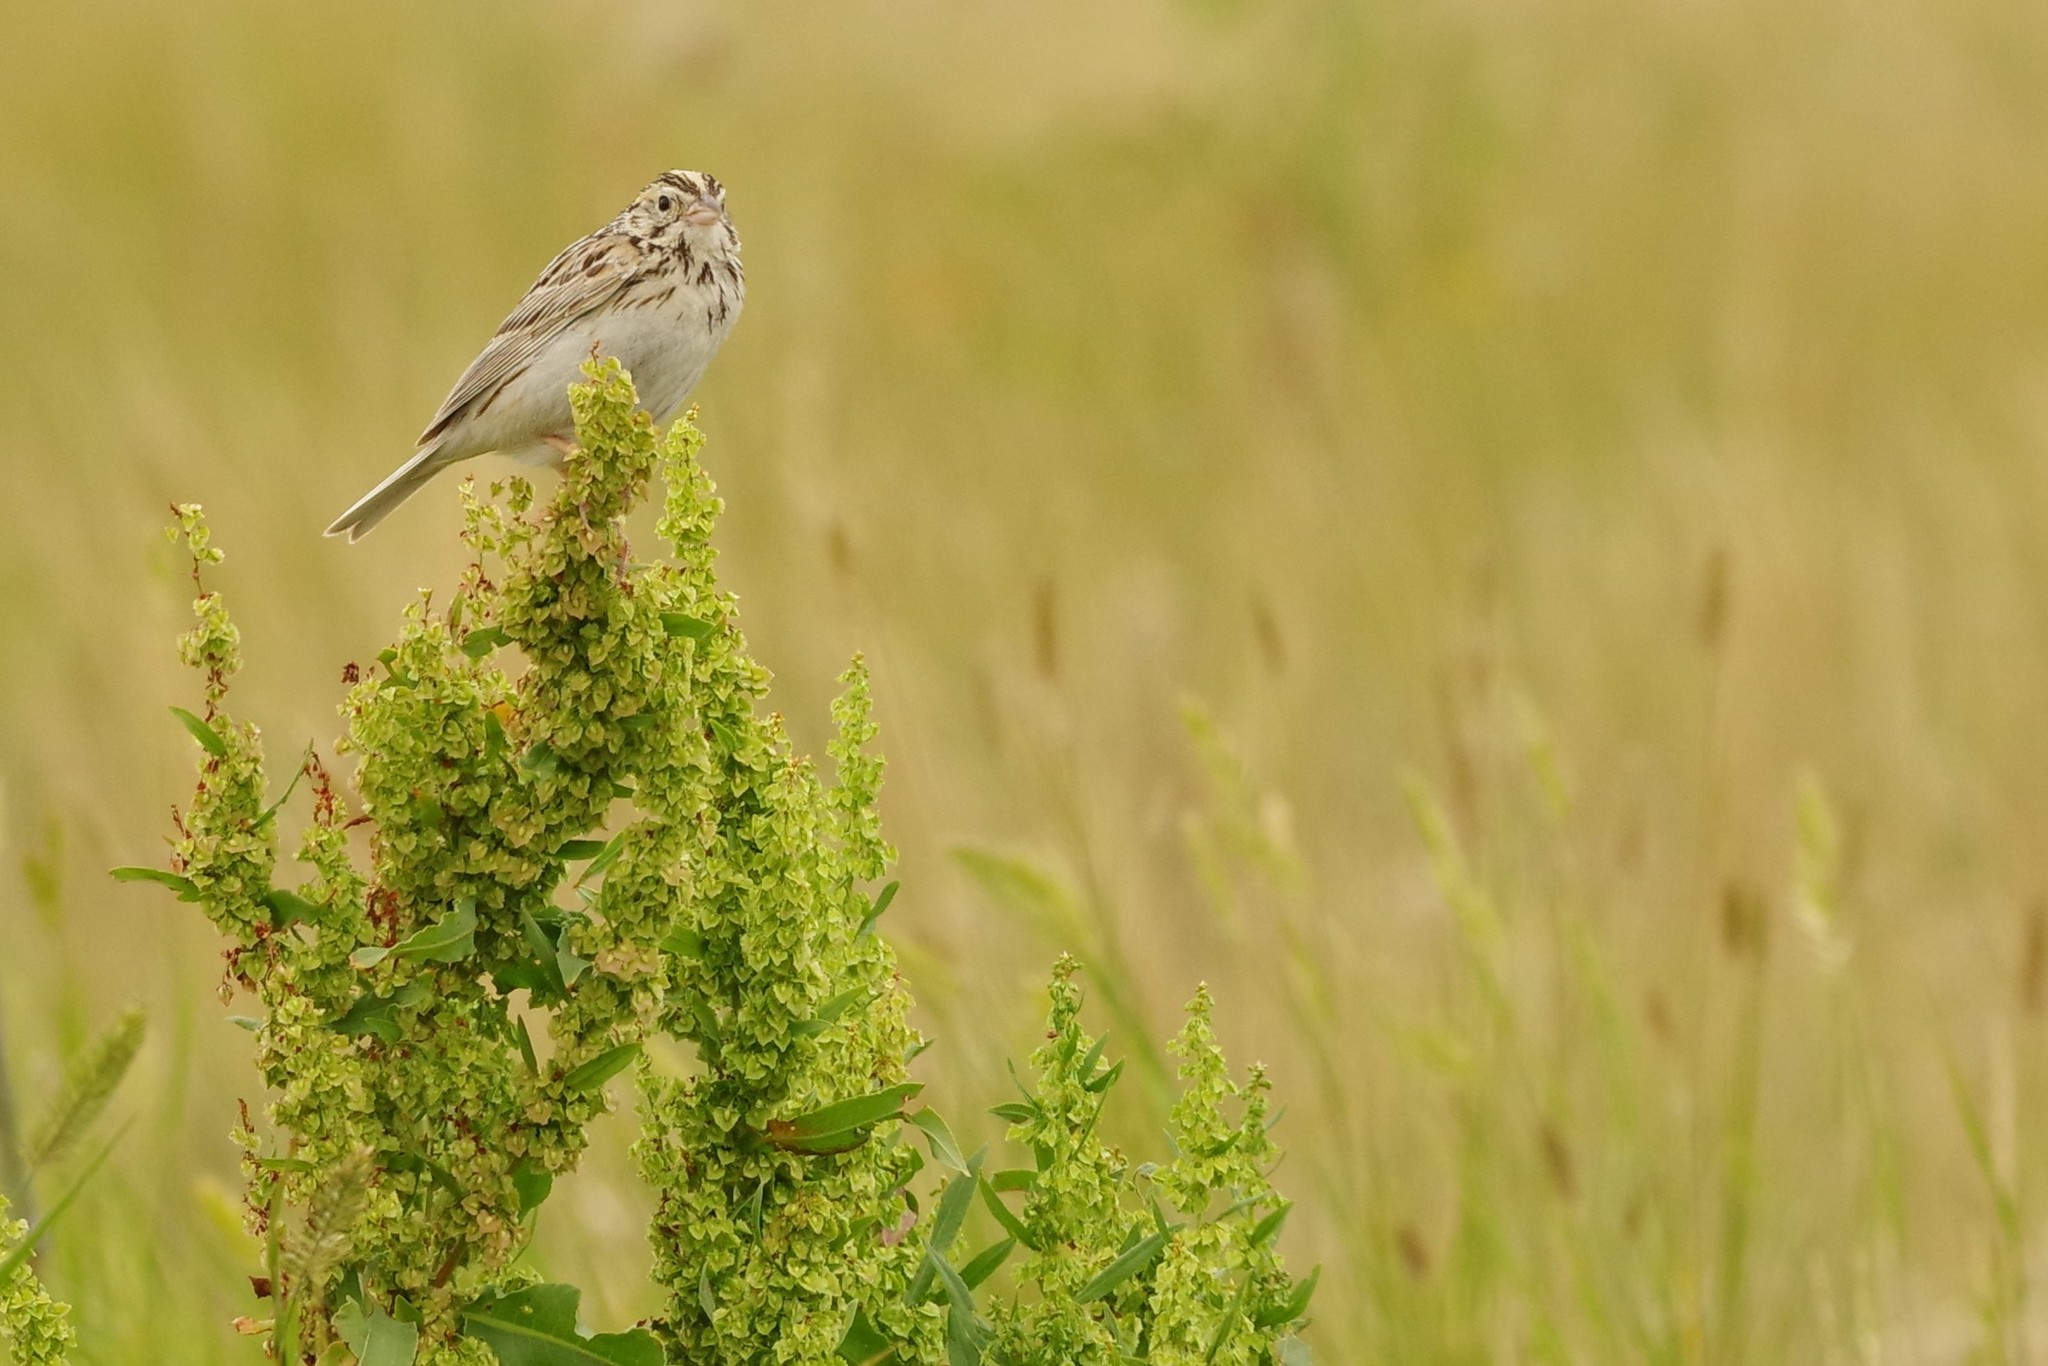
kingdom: Animalia
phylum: Chordata
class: Aves
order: Passeriformes
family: Passerellidae
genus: Centronyx
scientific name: Centronyx bairdii
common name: Baird's sparrow
